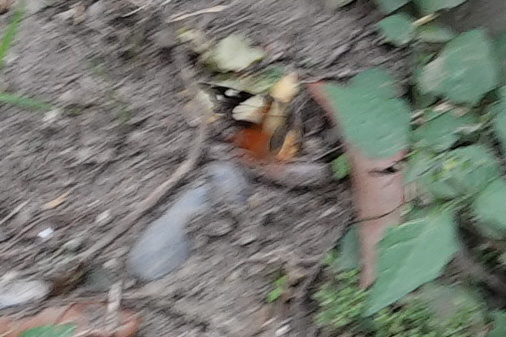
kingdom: Animalia
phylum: Arthropoda
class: Insecta
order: Lepidoptera
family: Nymphalidae
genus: Vanessa
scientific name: Vanessa itea
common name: Yellow admiral
